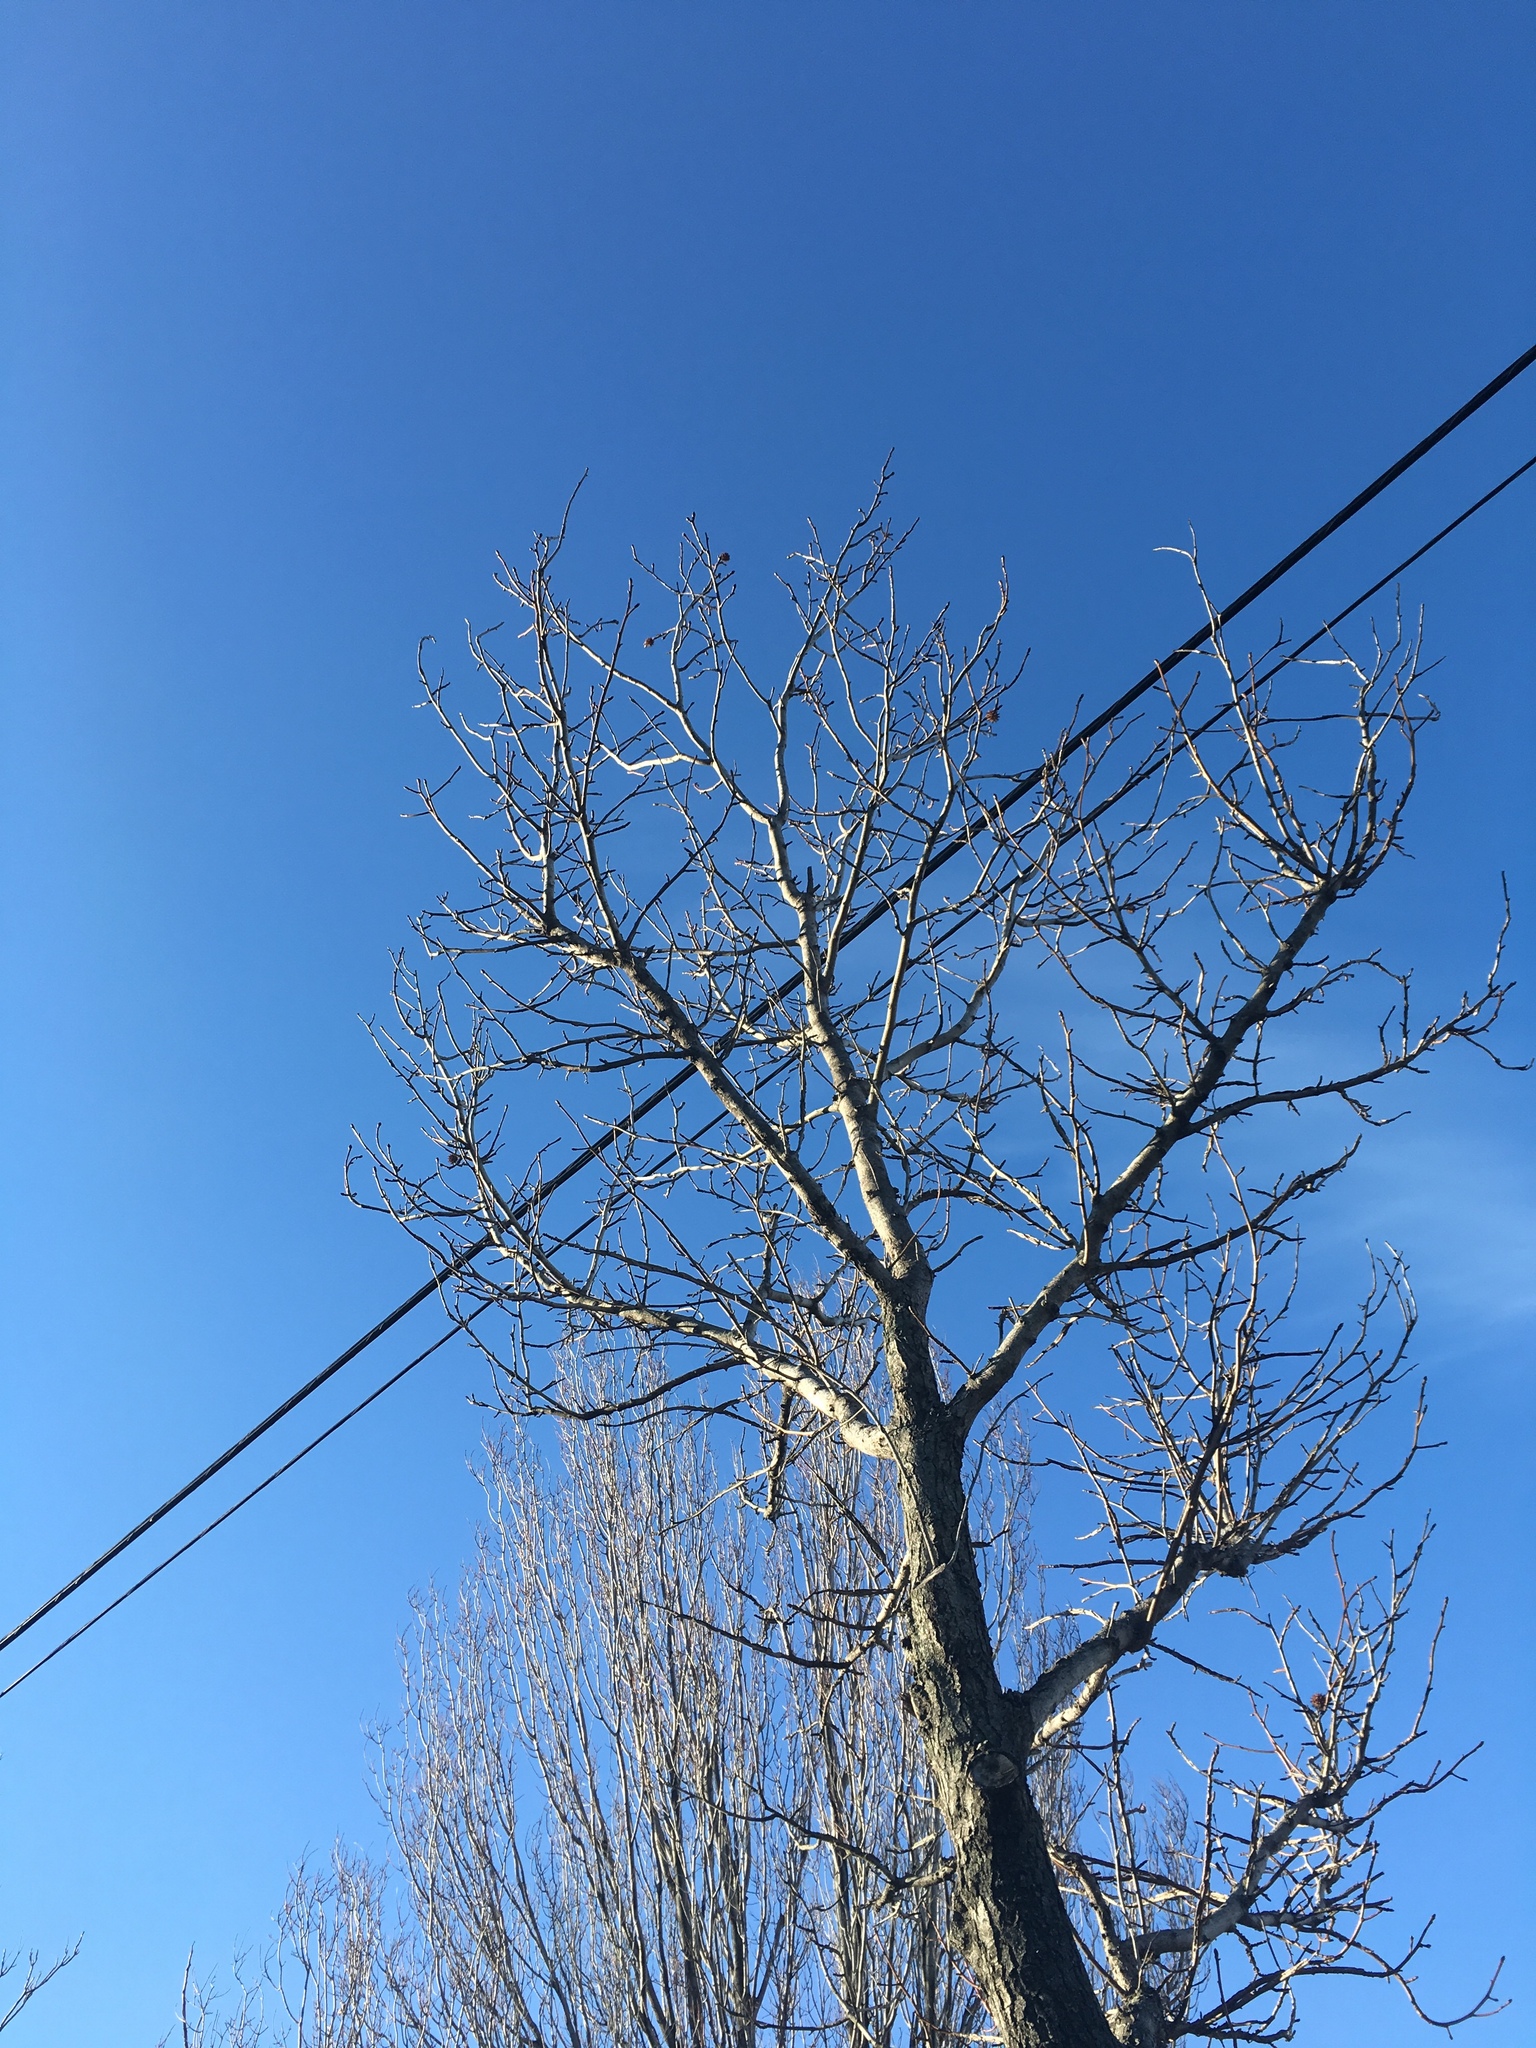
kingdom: Plantae
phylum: Tracheophyta
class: Magnoliopsida
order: Saxifragales
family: Altingiaceae
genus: Liquidambar
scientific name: Liquidambar styraciflua
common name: Sweet gum
